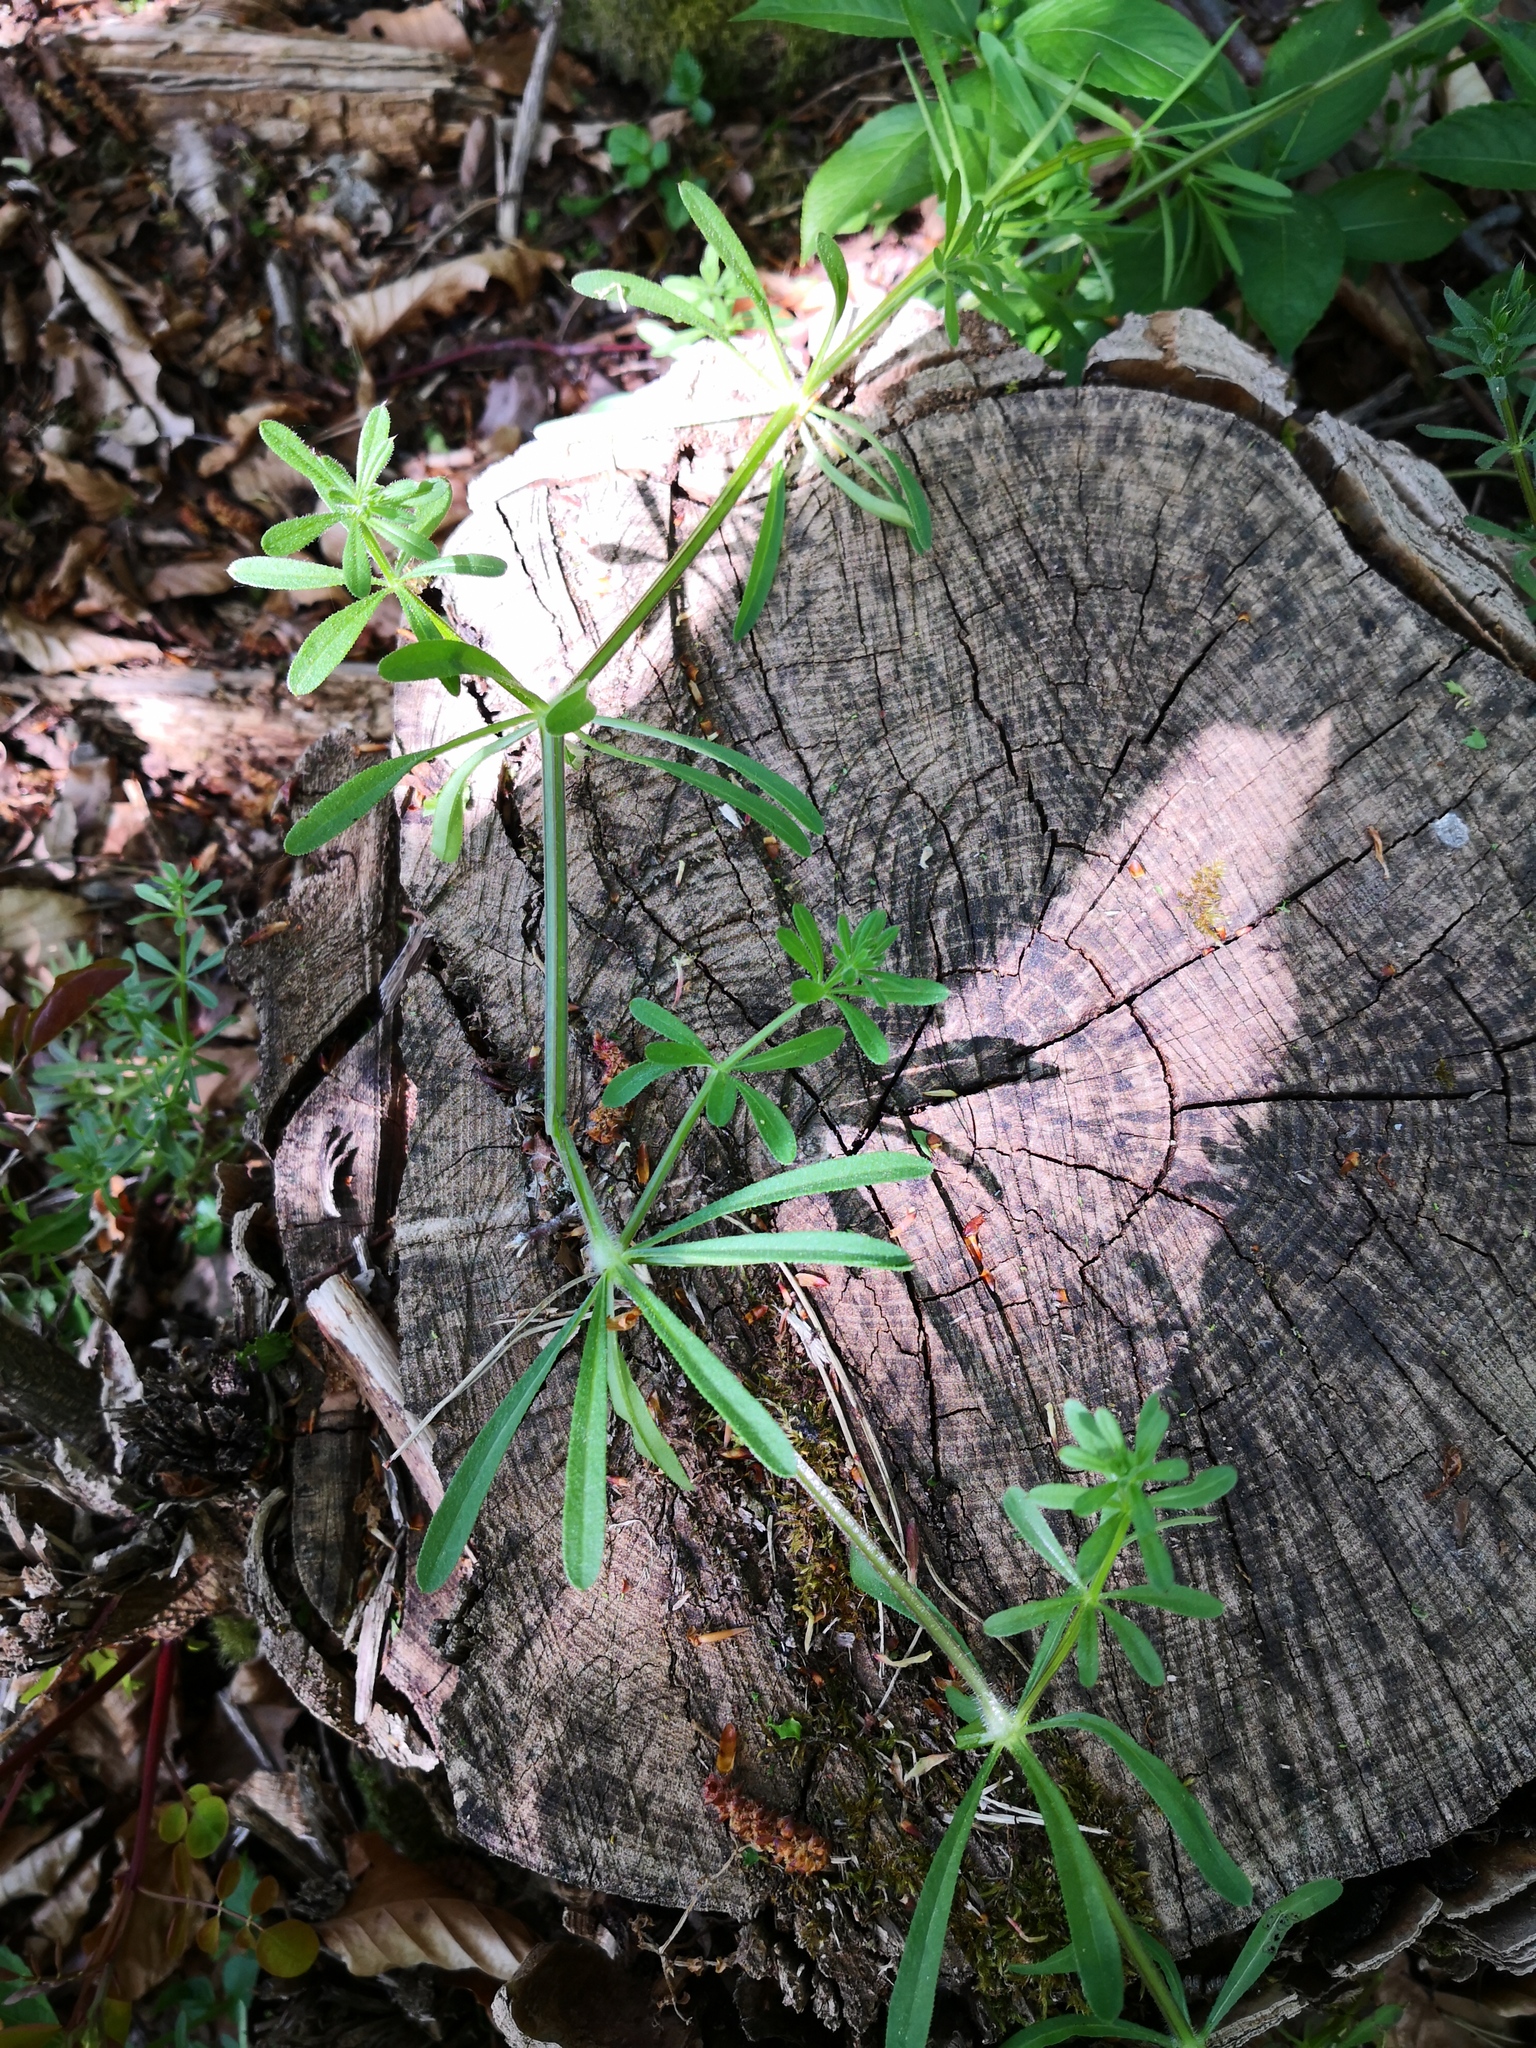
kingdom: Plantae
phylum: Tracheophyta
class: Magnoliopsida
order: Gentianales
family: Rubiaceae
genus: Galium
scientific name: Galium aparine
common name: Cleavers
